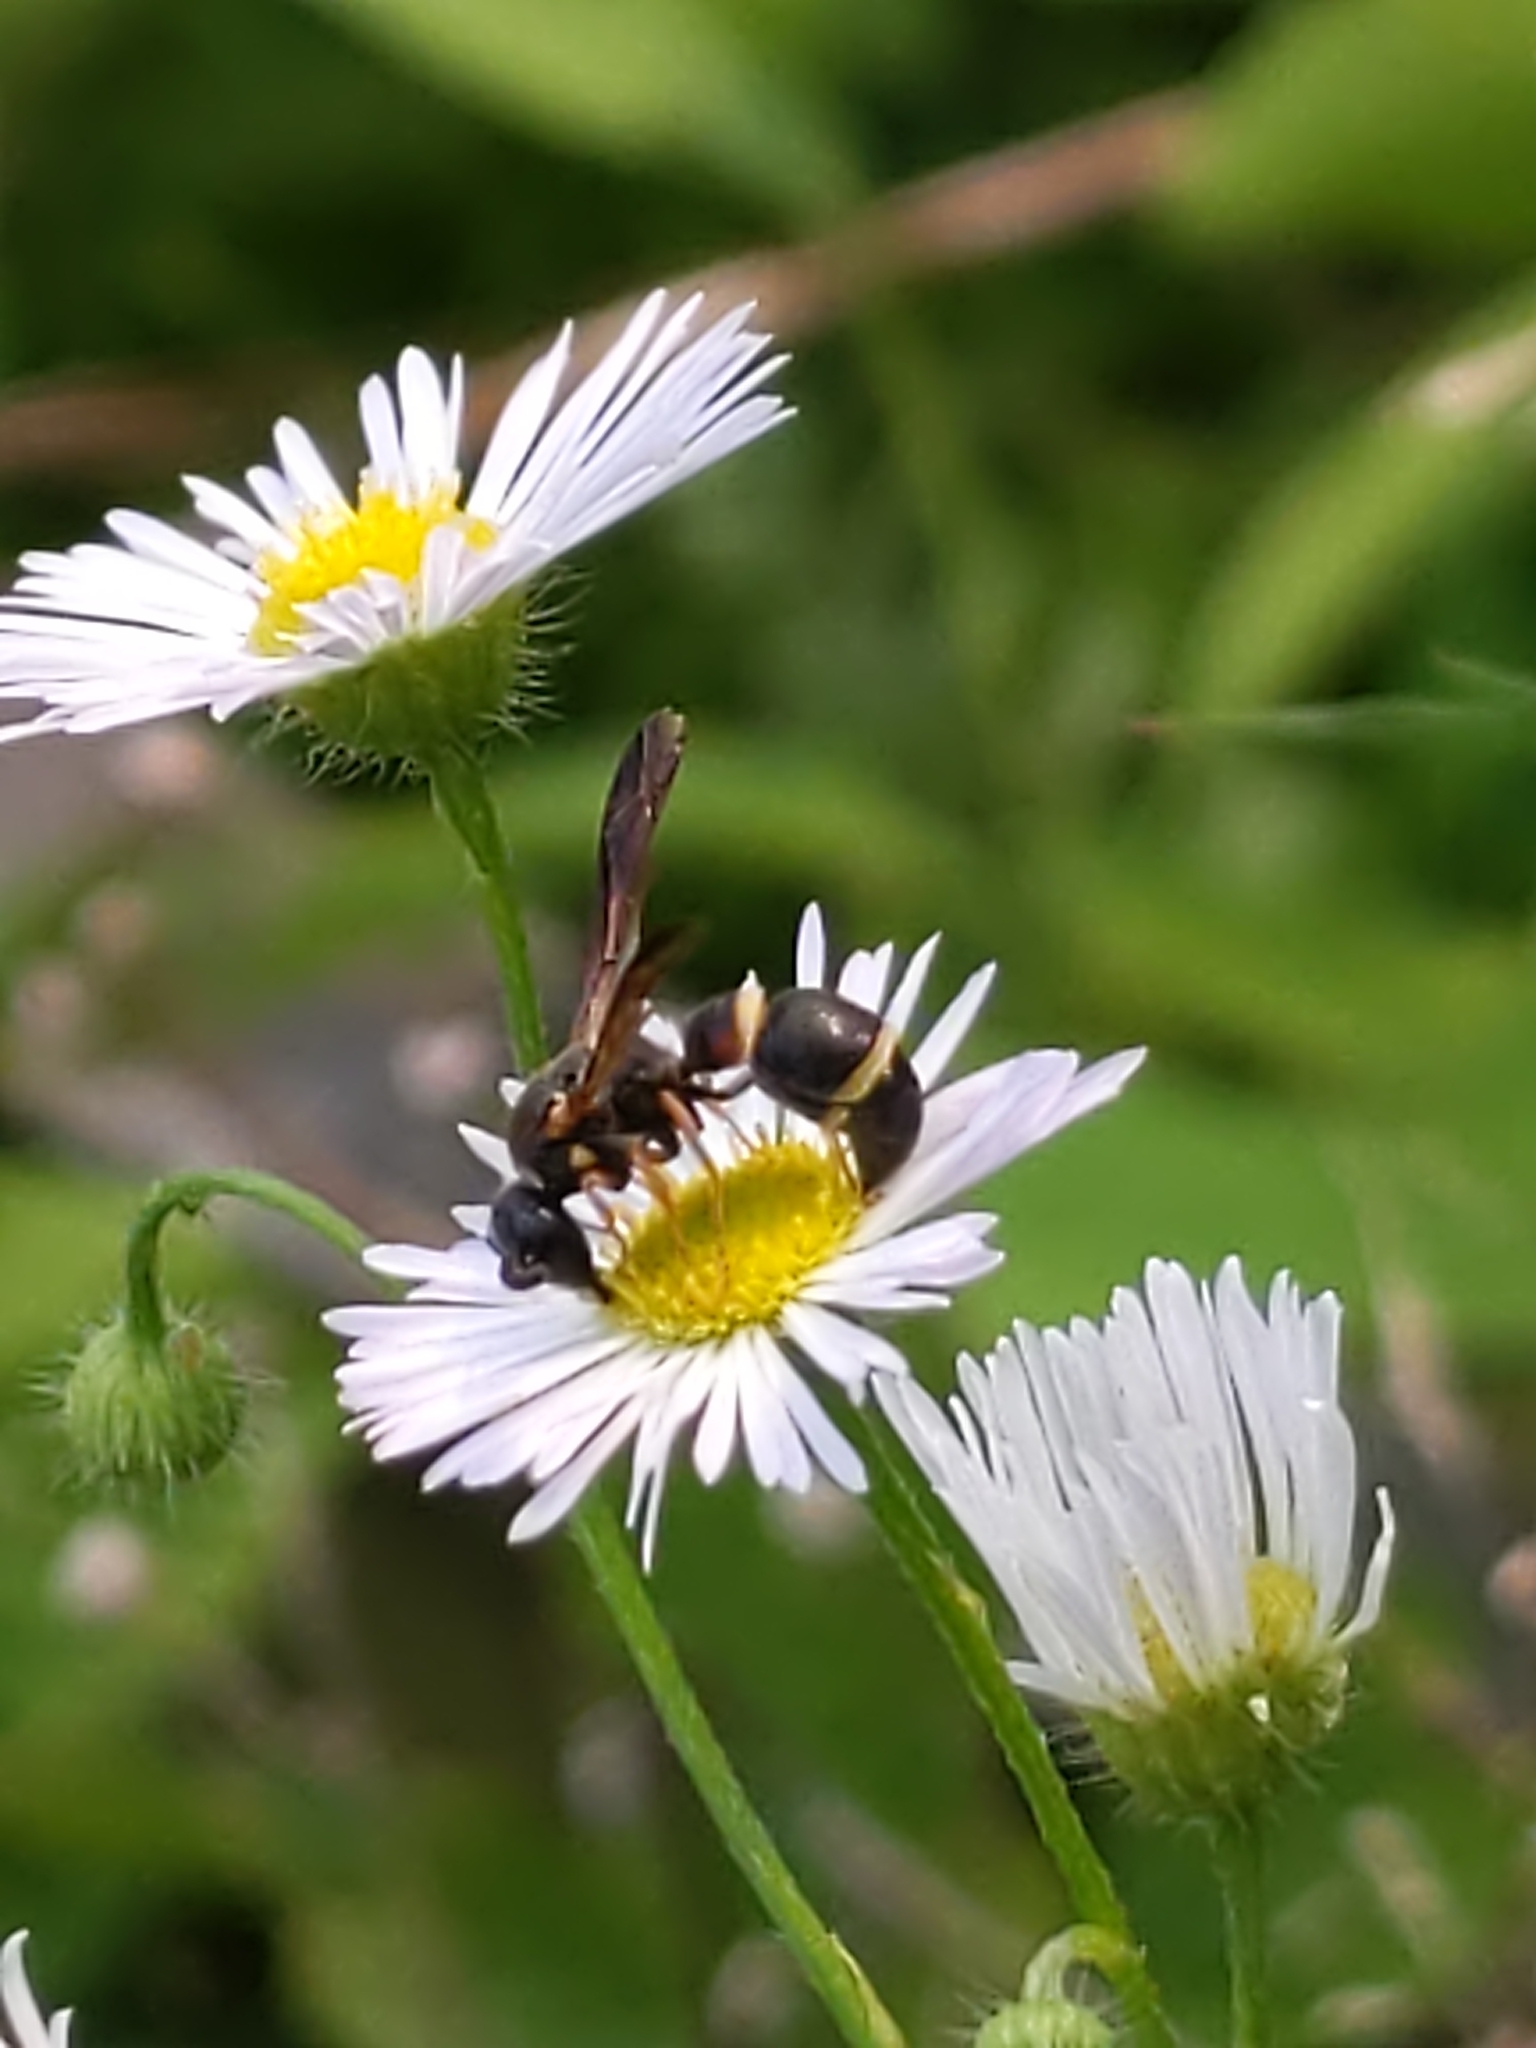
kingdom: Animalia
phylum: Arthropoda
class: Insecta
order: Hymenoptera
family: Eumenidae
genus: Parancistrocerus
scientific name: Parancistrocerus perennis
